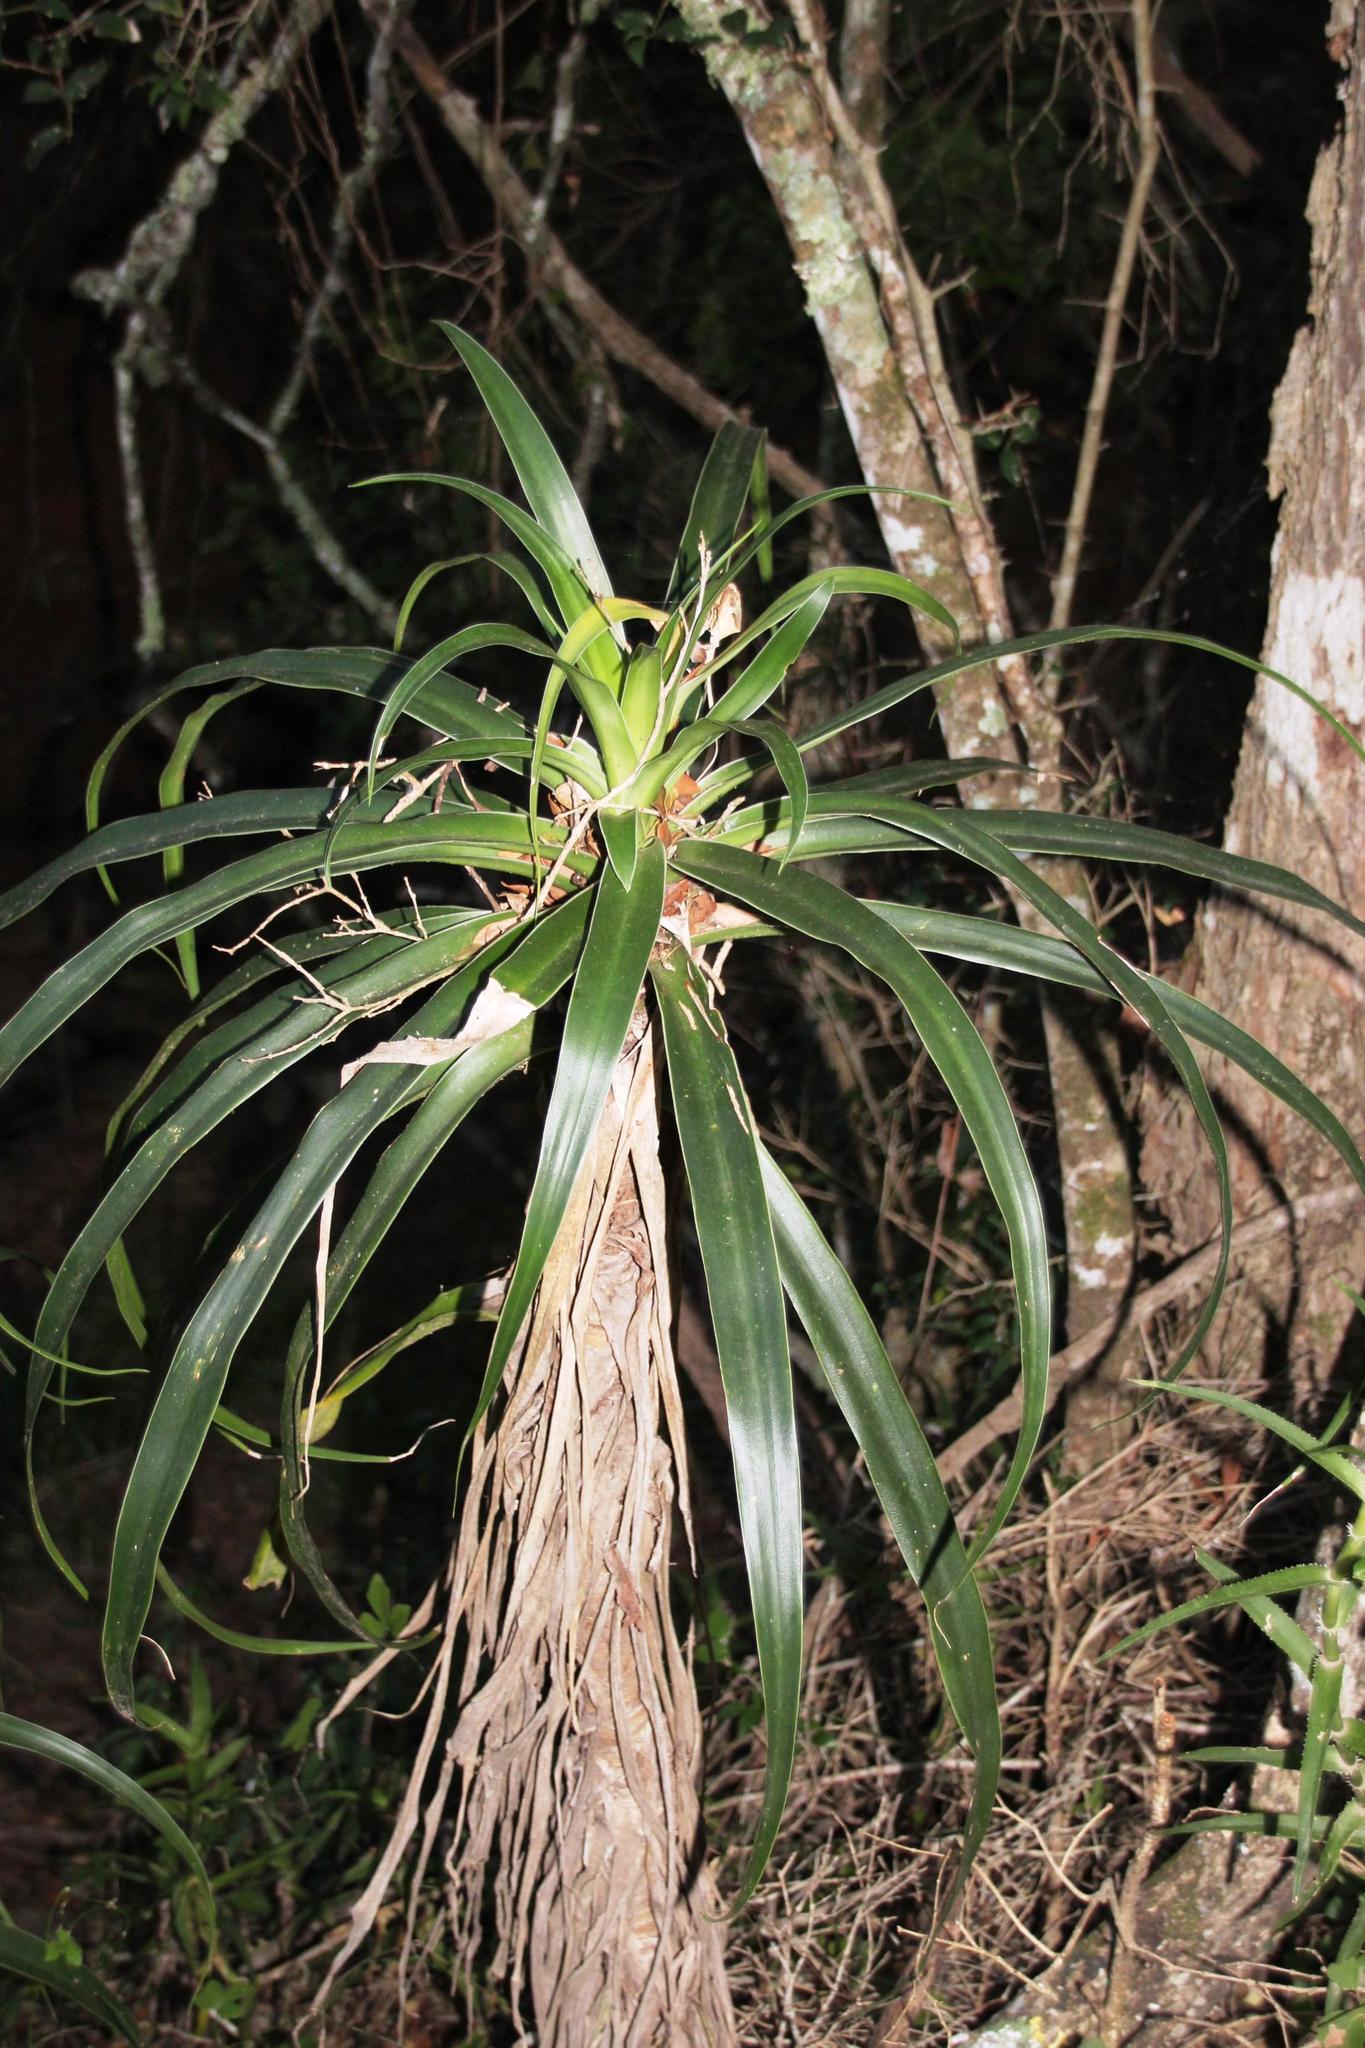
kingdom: Plantae
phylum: Tracheophyta
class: Liliopsida
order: Asparagales
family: Asparagaceae
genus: Dracaena
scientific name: Dracaena aletriformis
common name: Large-leaved dragon tree
